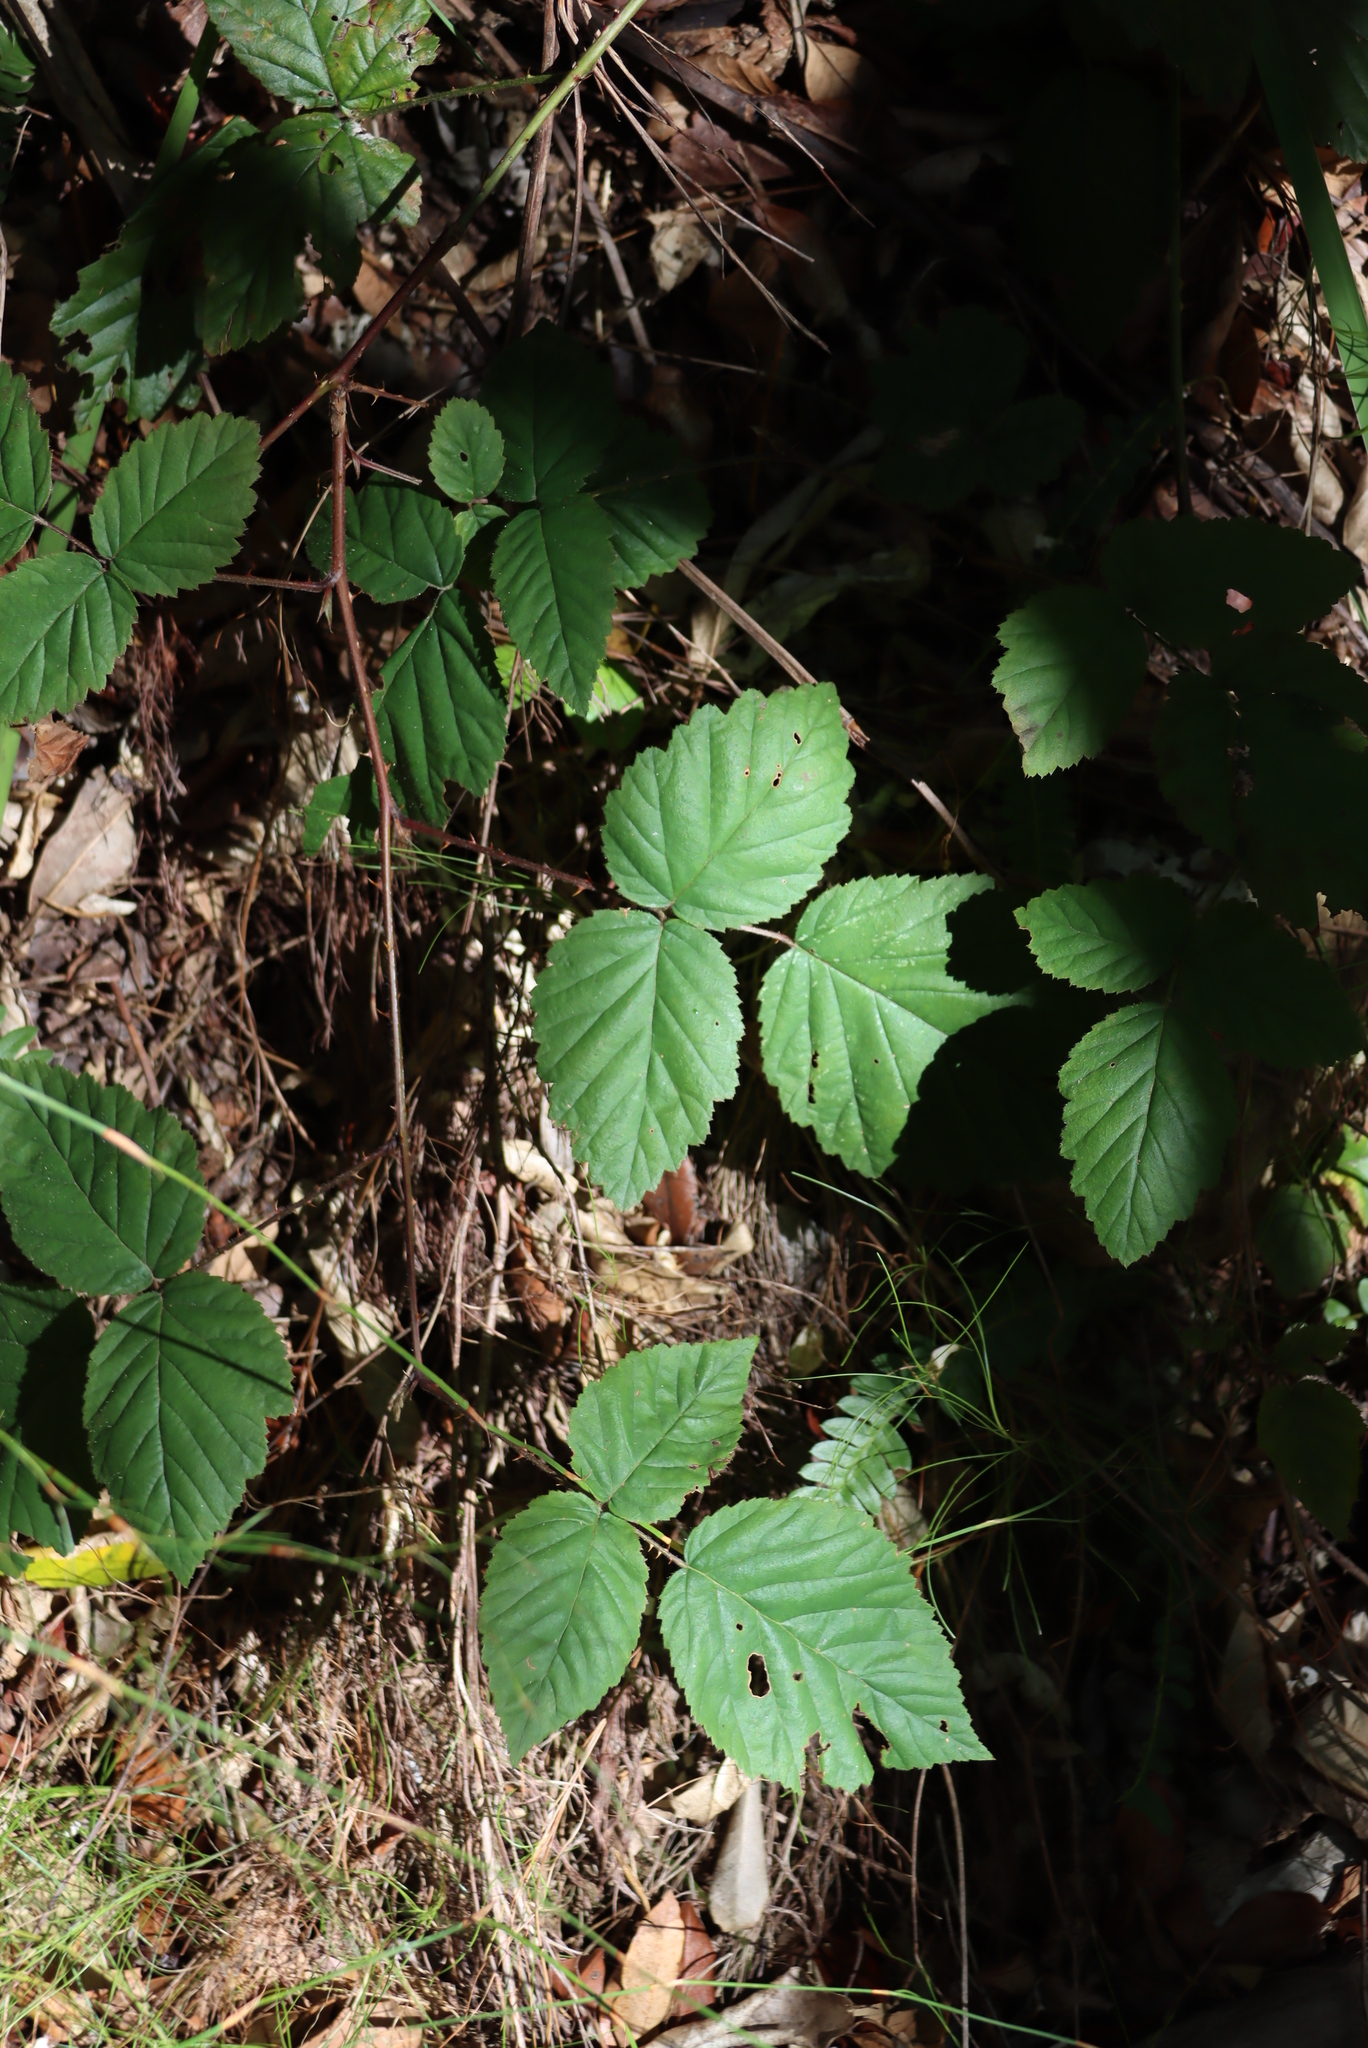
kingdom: Plantae
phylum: Tracheophyta
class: Magnoliopsida
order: Rosales
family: Rosaceae
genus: Rubus
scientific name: Rubus affinis
